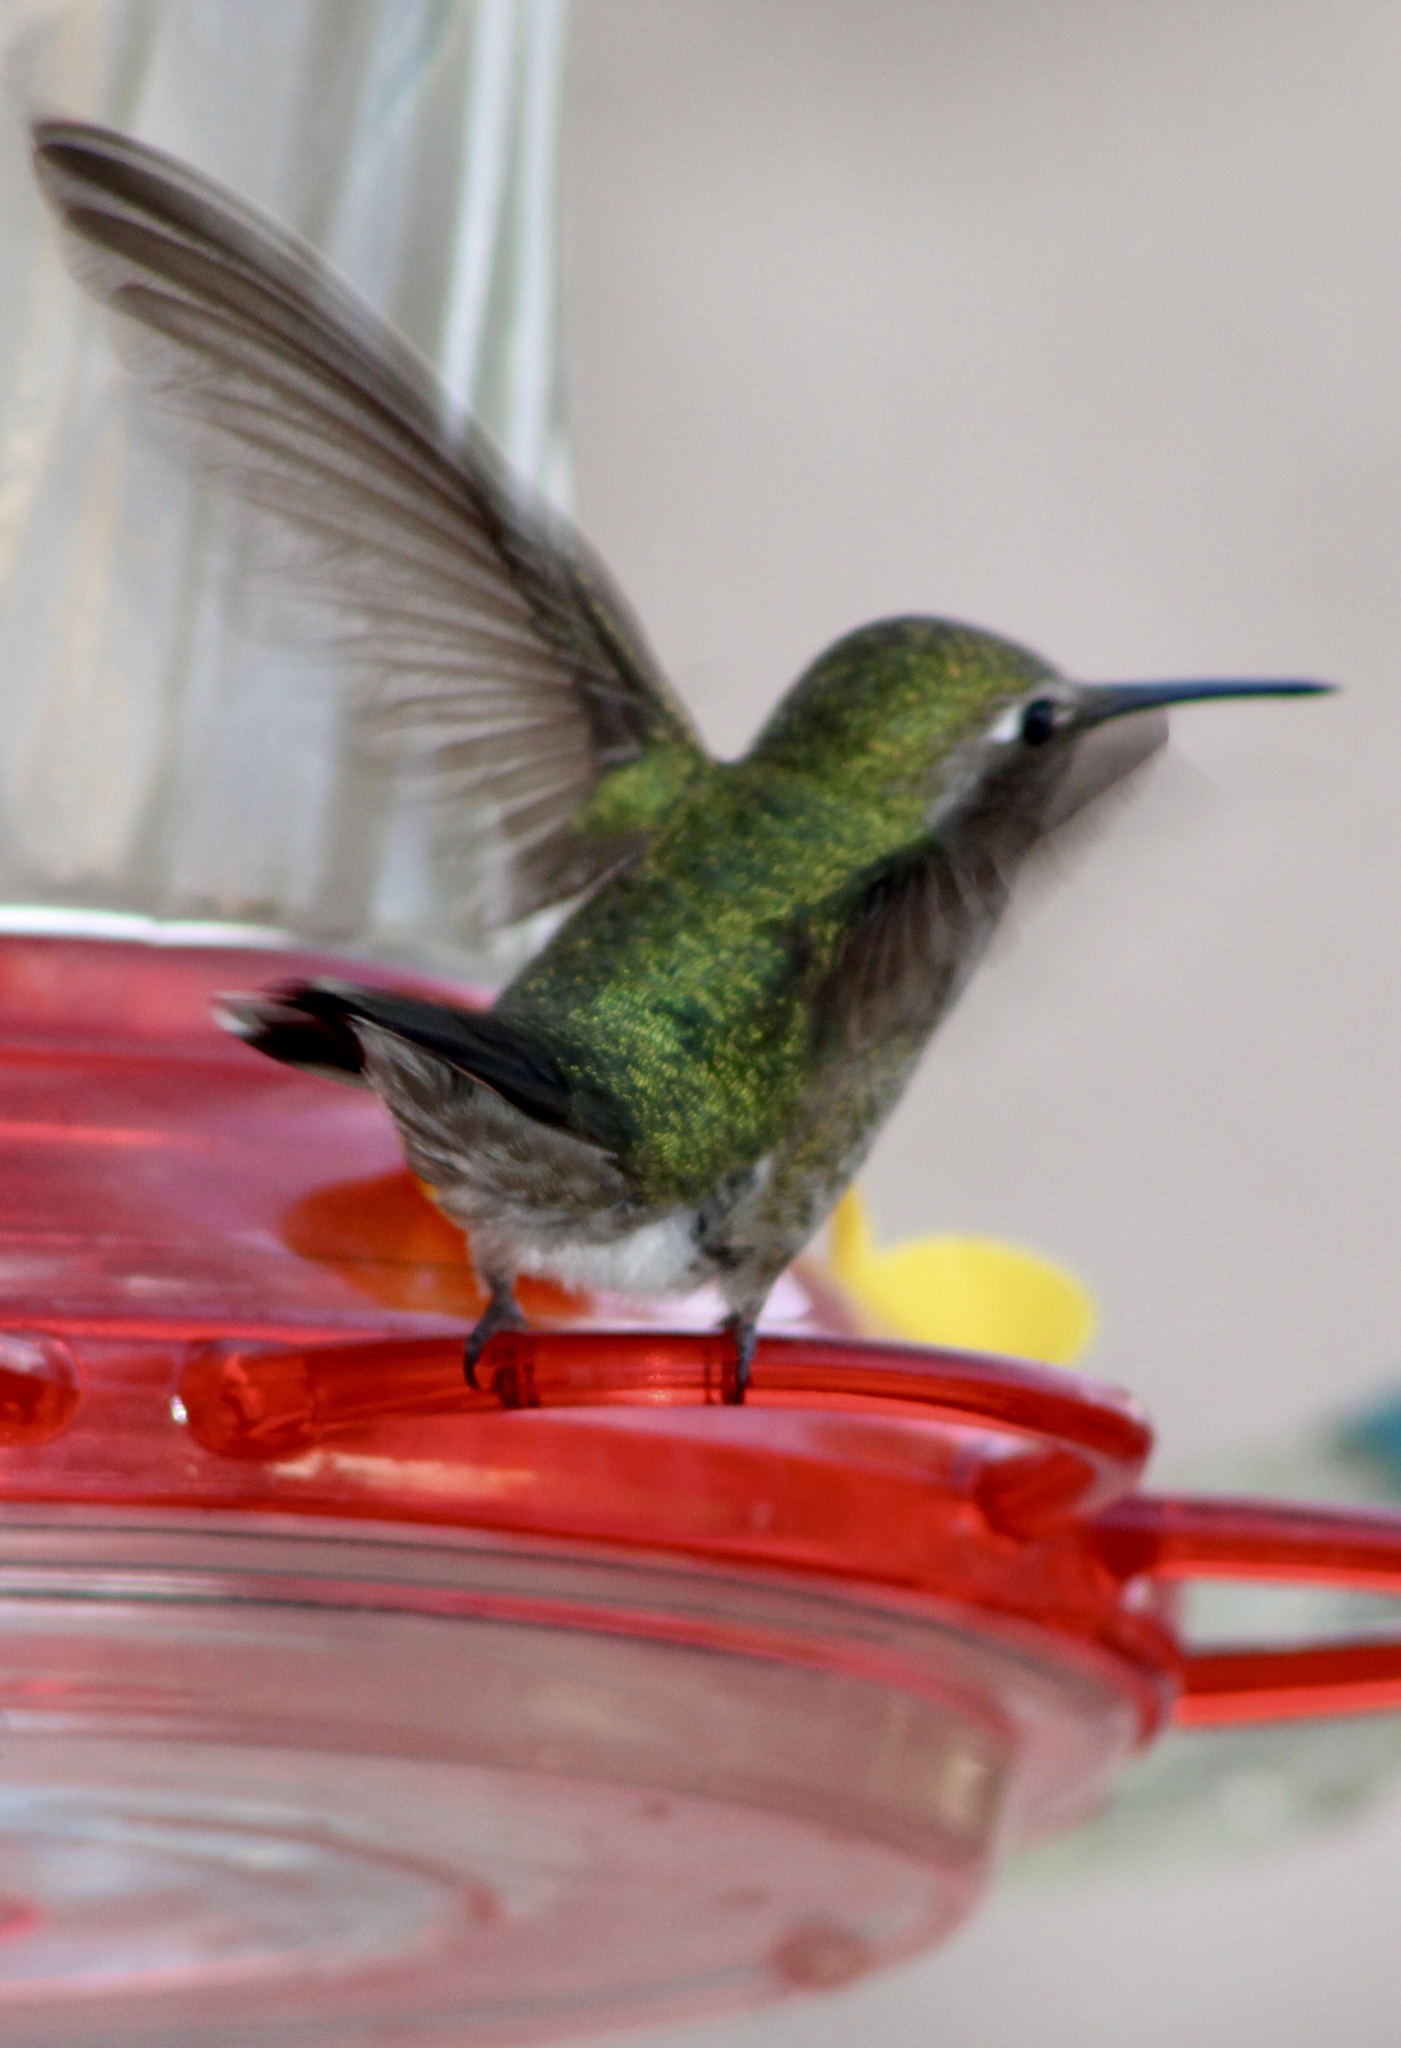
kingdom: Animalia
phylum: Chordata
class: Aves
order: Apodiformes
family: Trochilidae
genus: Calypte
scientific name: Calypte anna
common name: Anna's hummingbird
